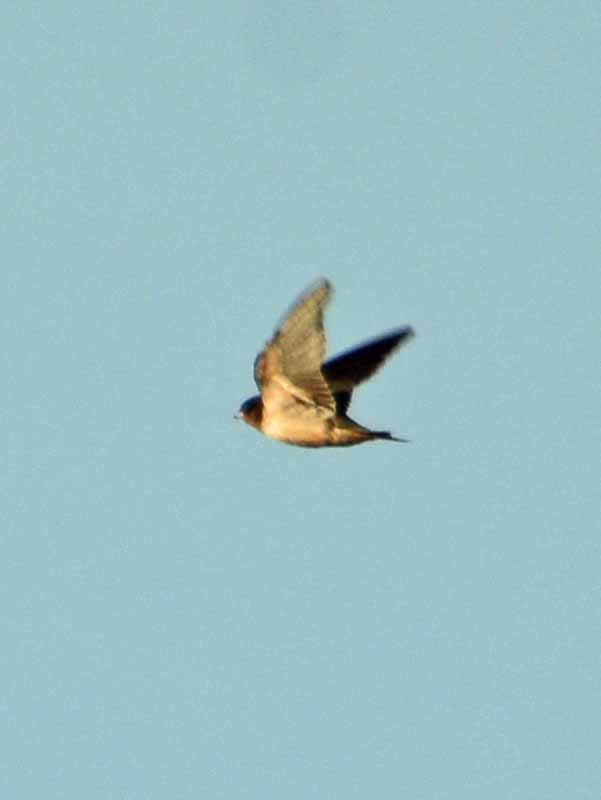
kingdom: Animalia
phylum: Chordata
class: Aves
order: Passeriformes
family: Hirundinidae
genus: Hirundo
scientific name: Hirundo rustica
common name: Barn swallow
